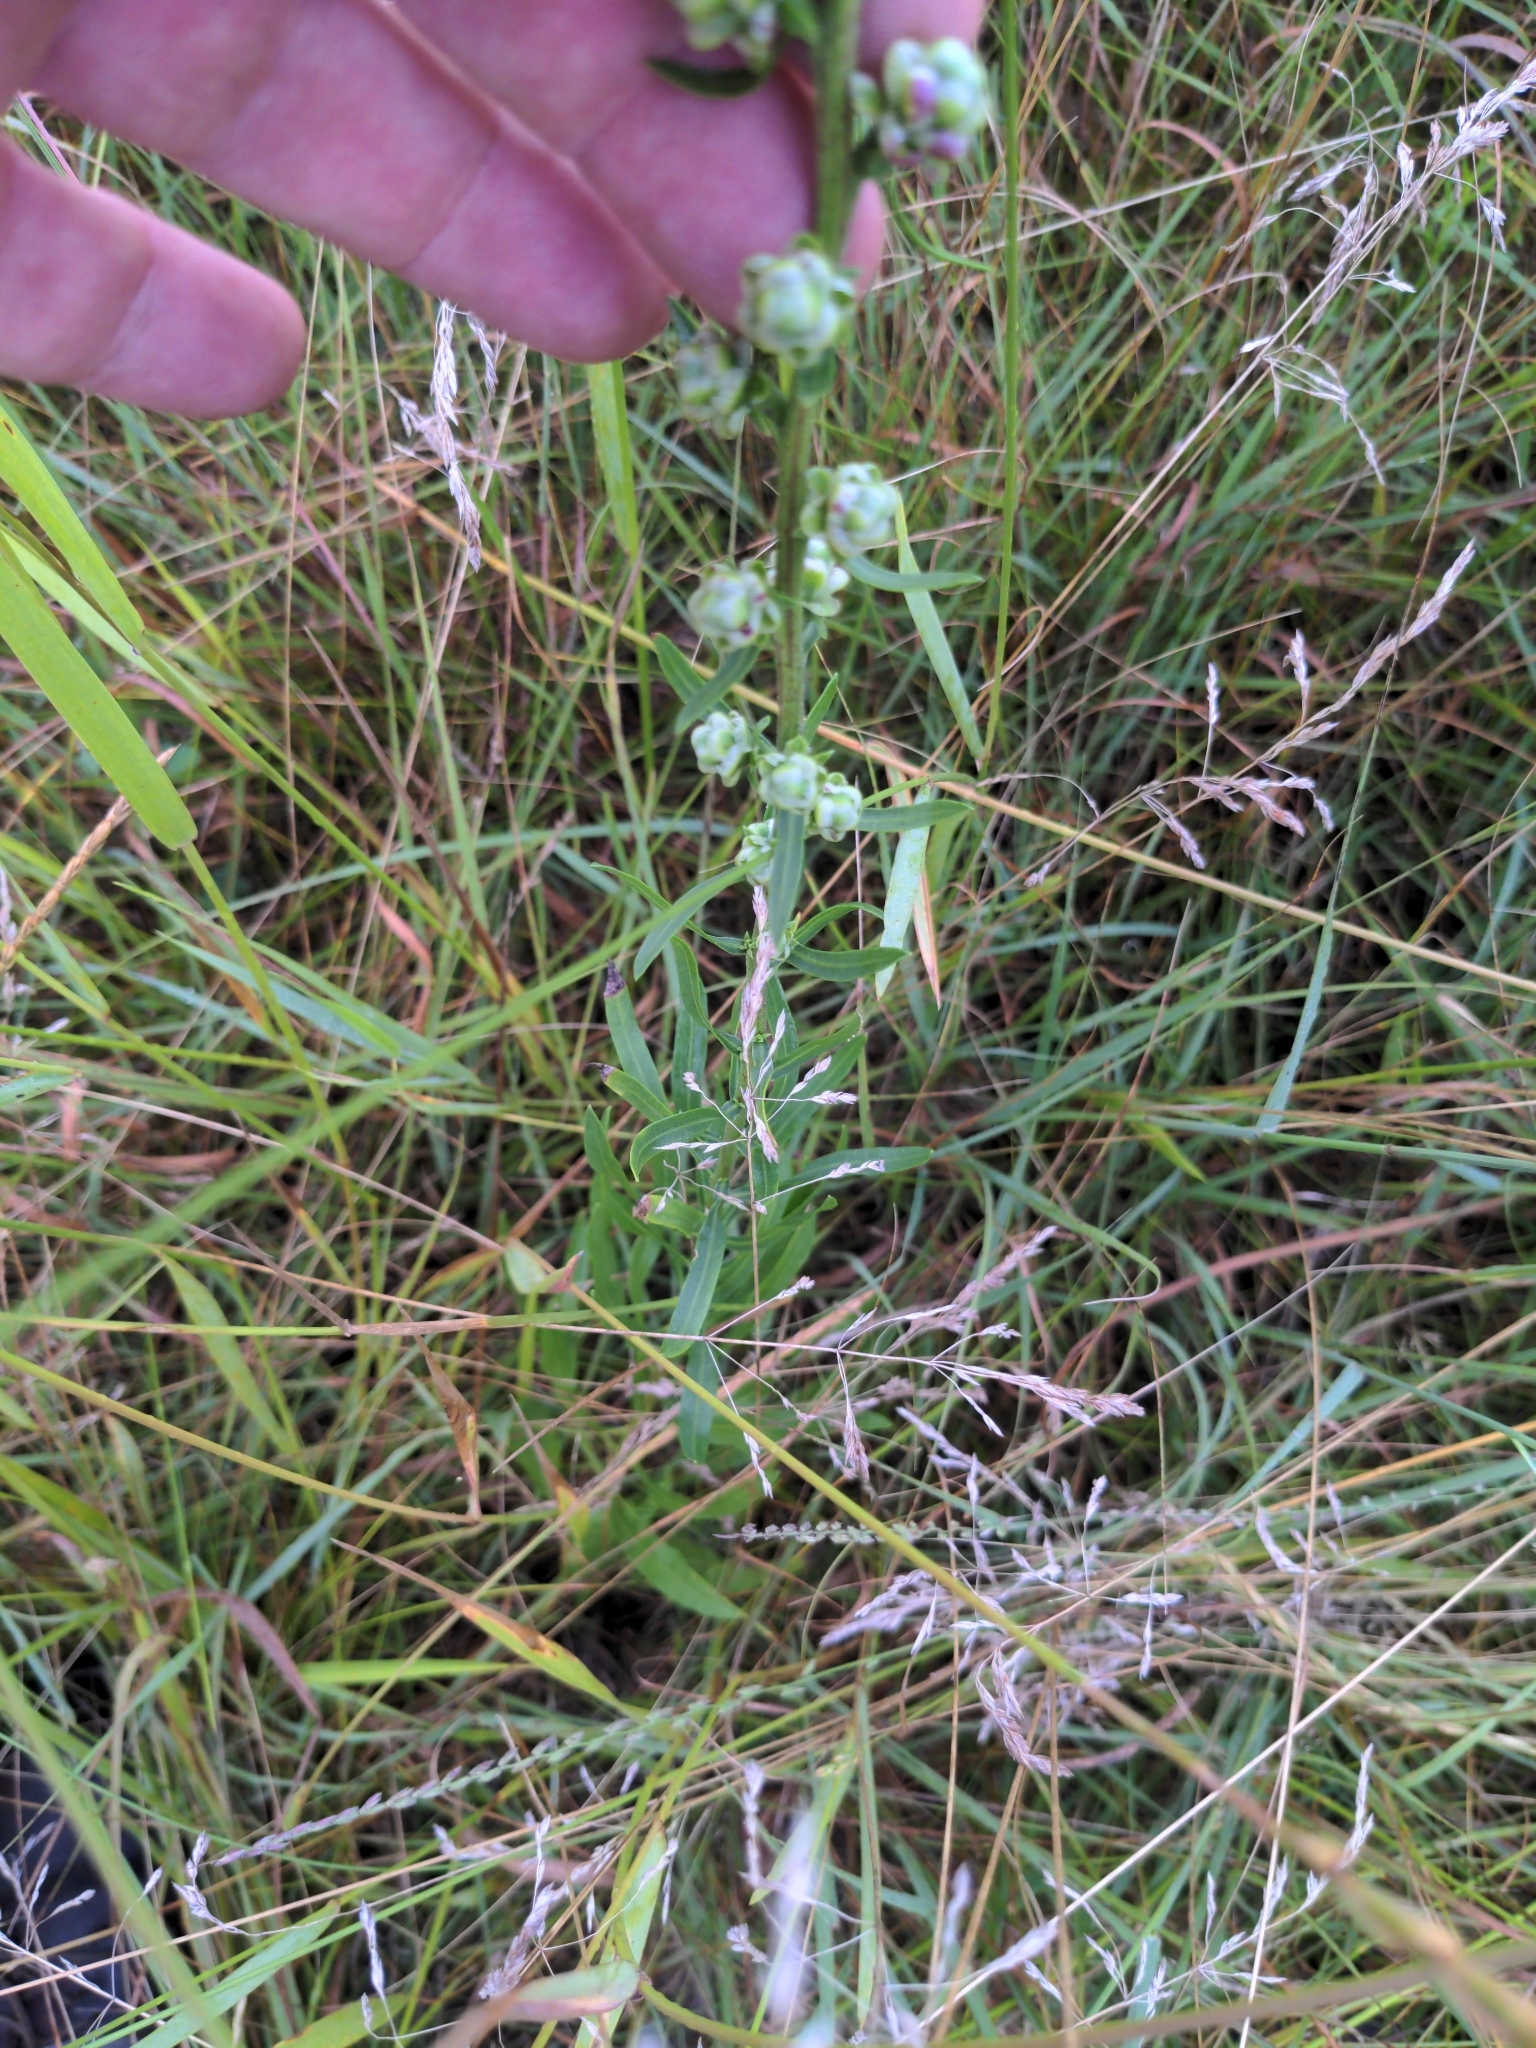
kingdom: Plantae
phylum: Tracheophyta
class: Magnoliopsida
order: Asterales
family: Asteraceae
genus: Liatris
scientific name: Liatris aspera
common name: Lacerate blazing-star
